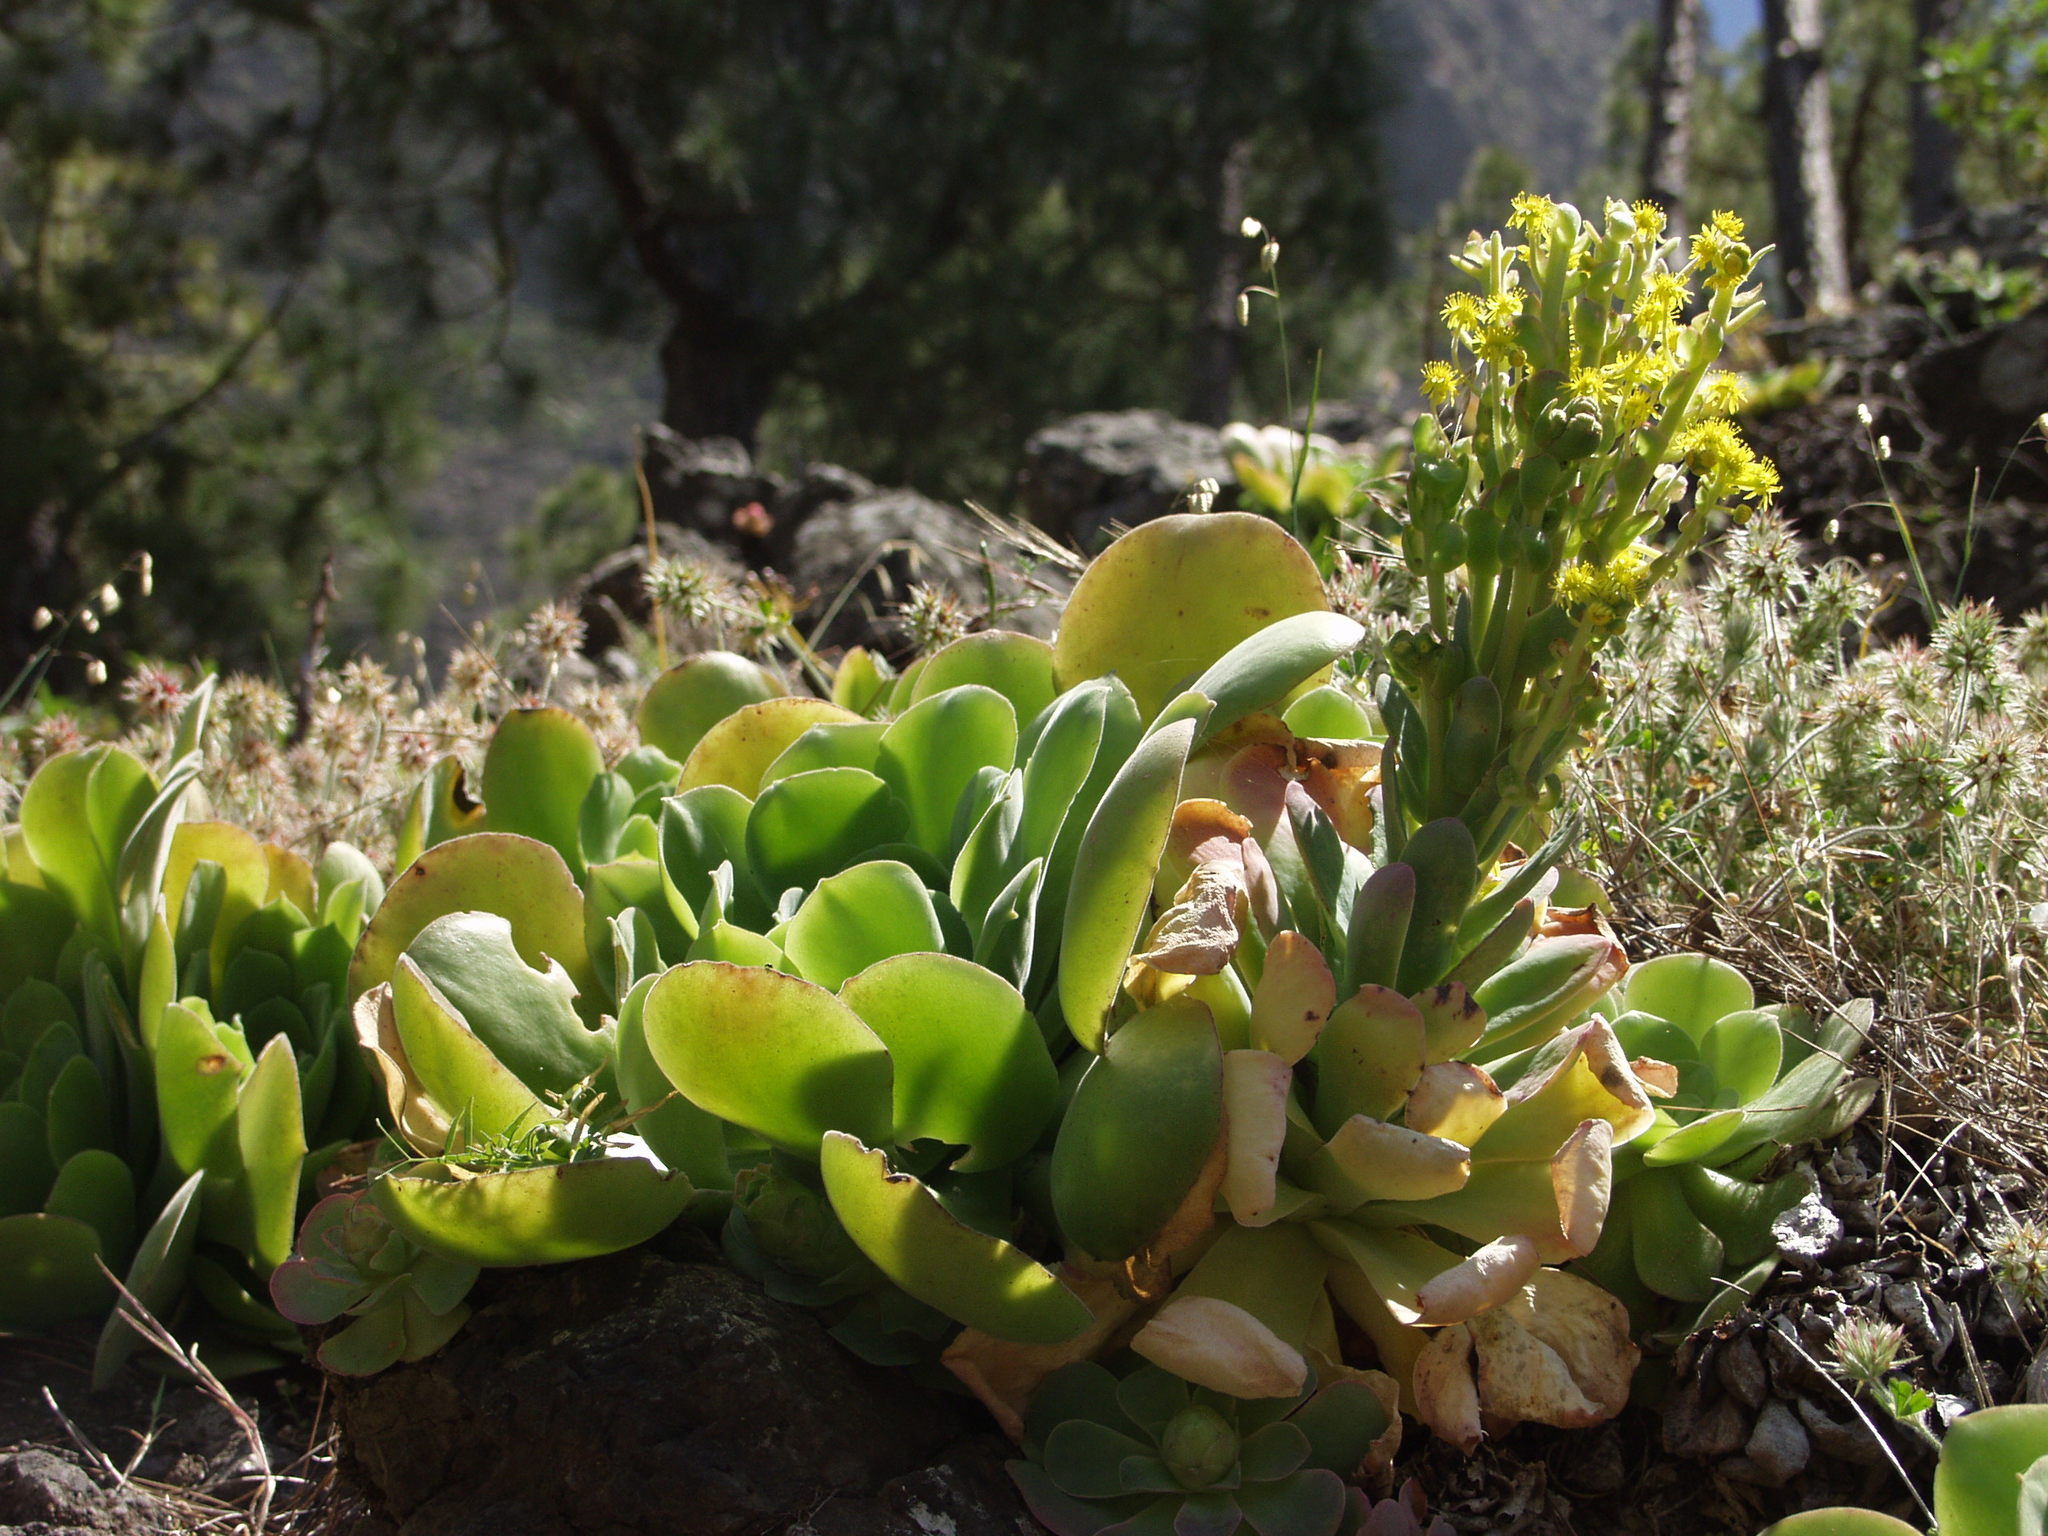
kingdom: Plantae
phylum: Tracheophyta
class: Magnoliopsida
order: Saxifragales
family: Crassulaceae
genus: Aeonium
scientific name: Aeonium canariense
